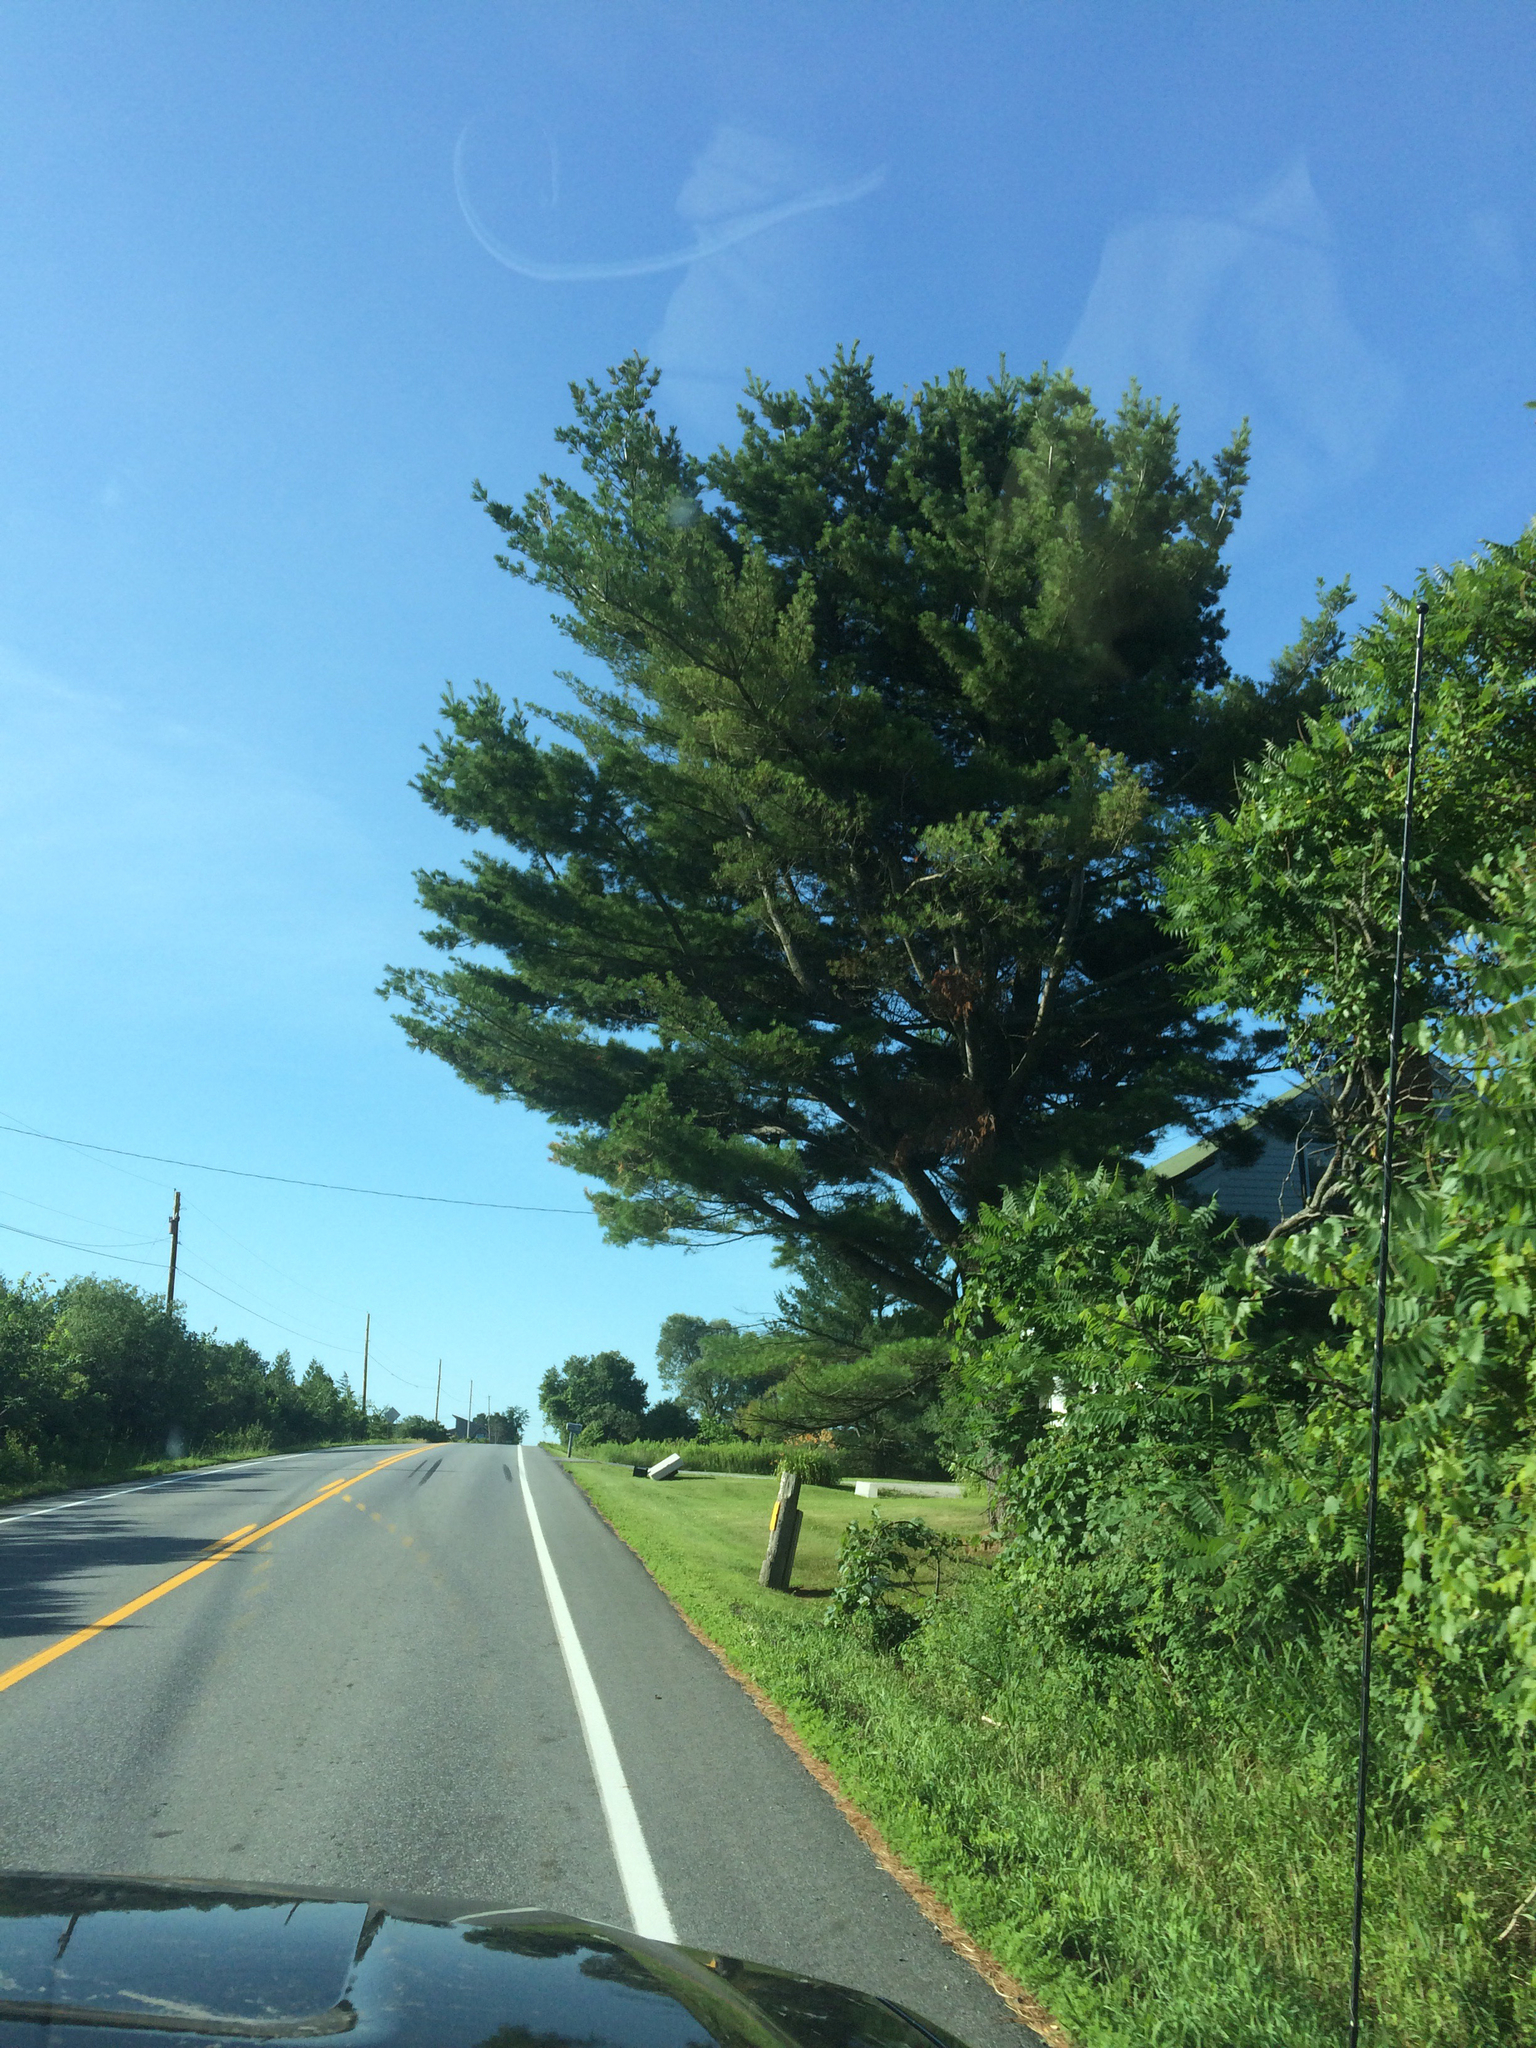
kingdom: Plantae
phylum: Tracheophyta
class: Pinopsida
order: Pinales
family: Pinaceae
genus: Pinus
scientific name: Pinus strobus
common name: Weymouth pine
